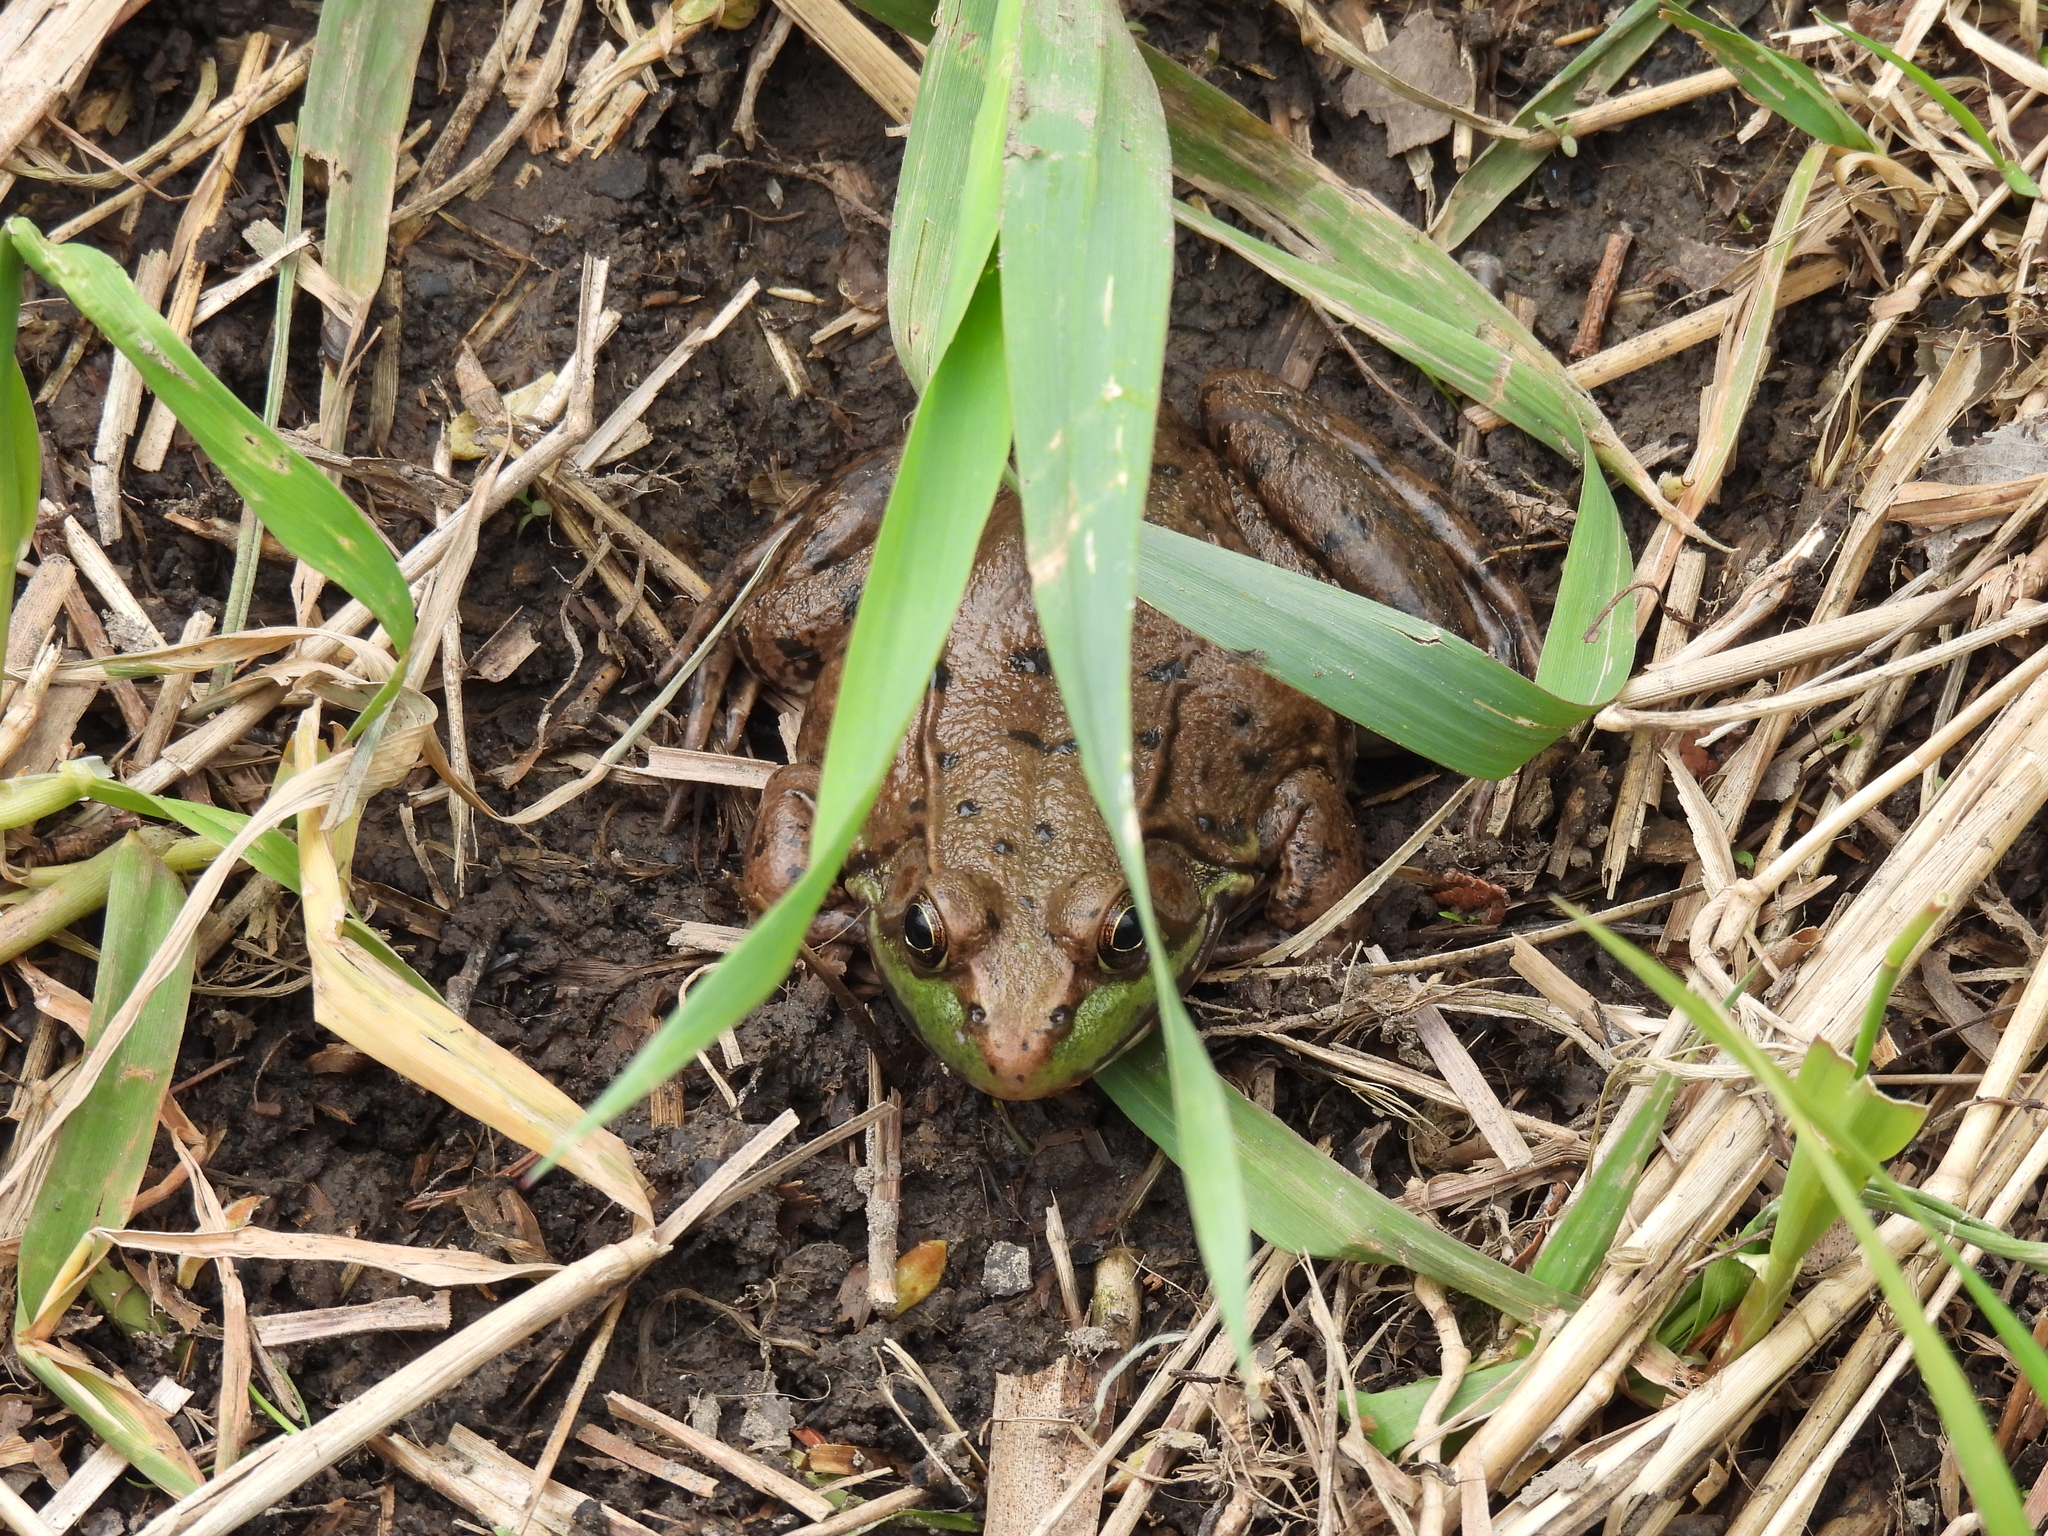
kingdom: Animalia
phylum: Chordata
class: Amphibia
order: Anura
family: Ranidae
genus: Lithobates
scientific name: Lithobates clamitans
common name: Green frog
